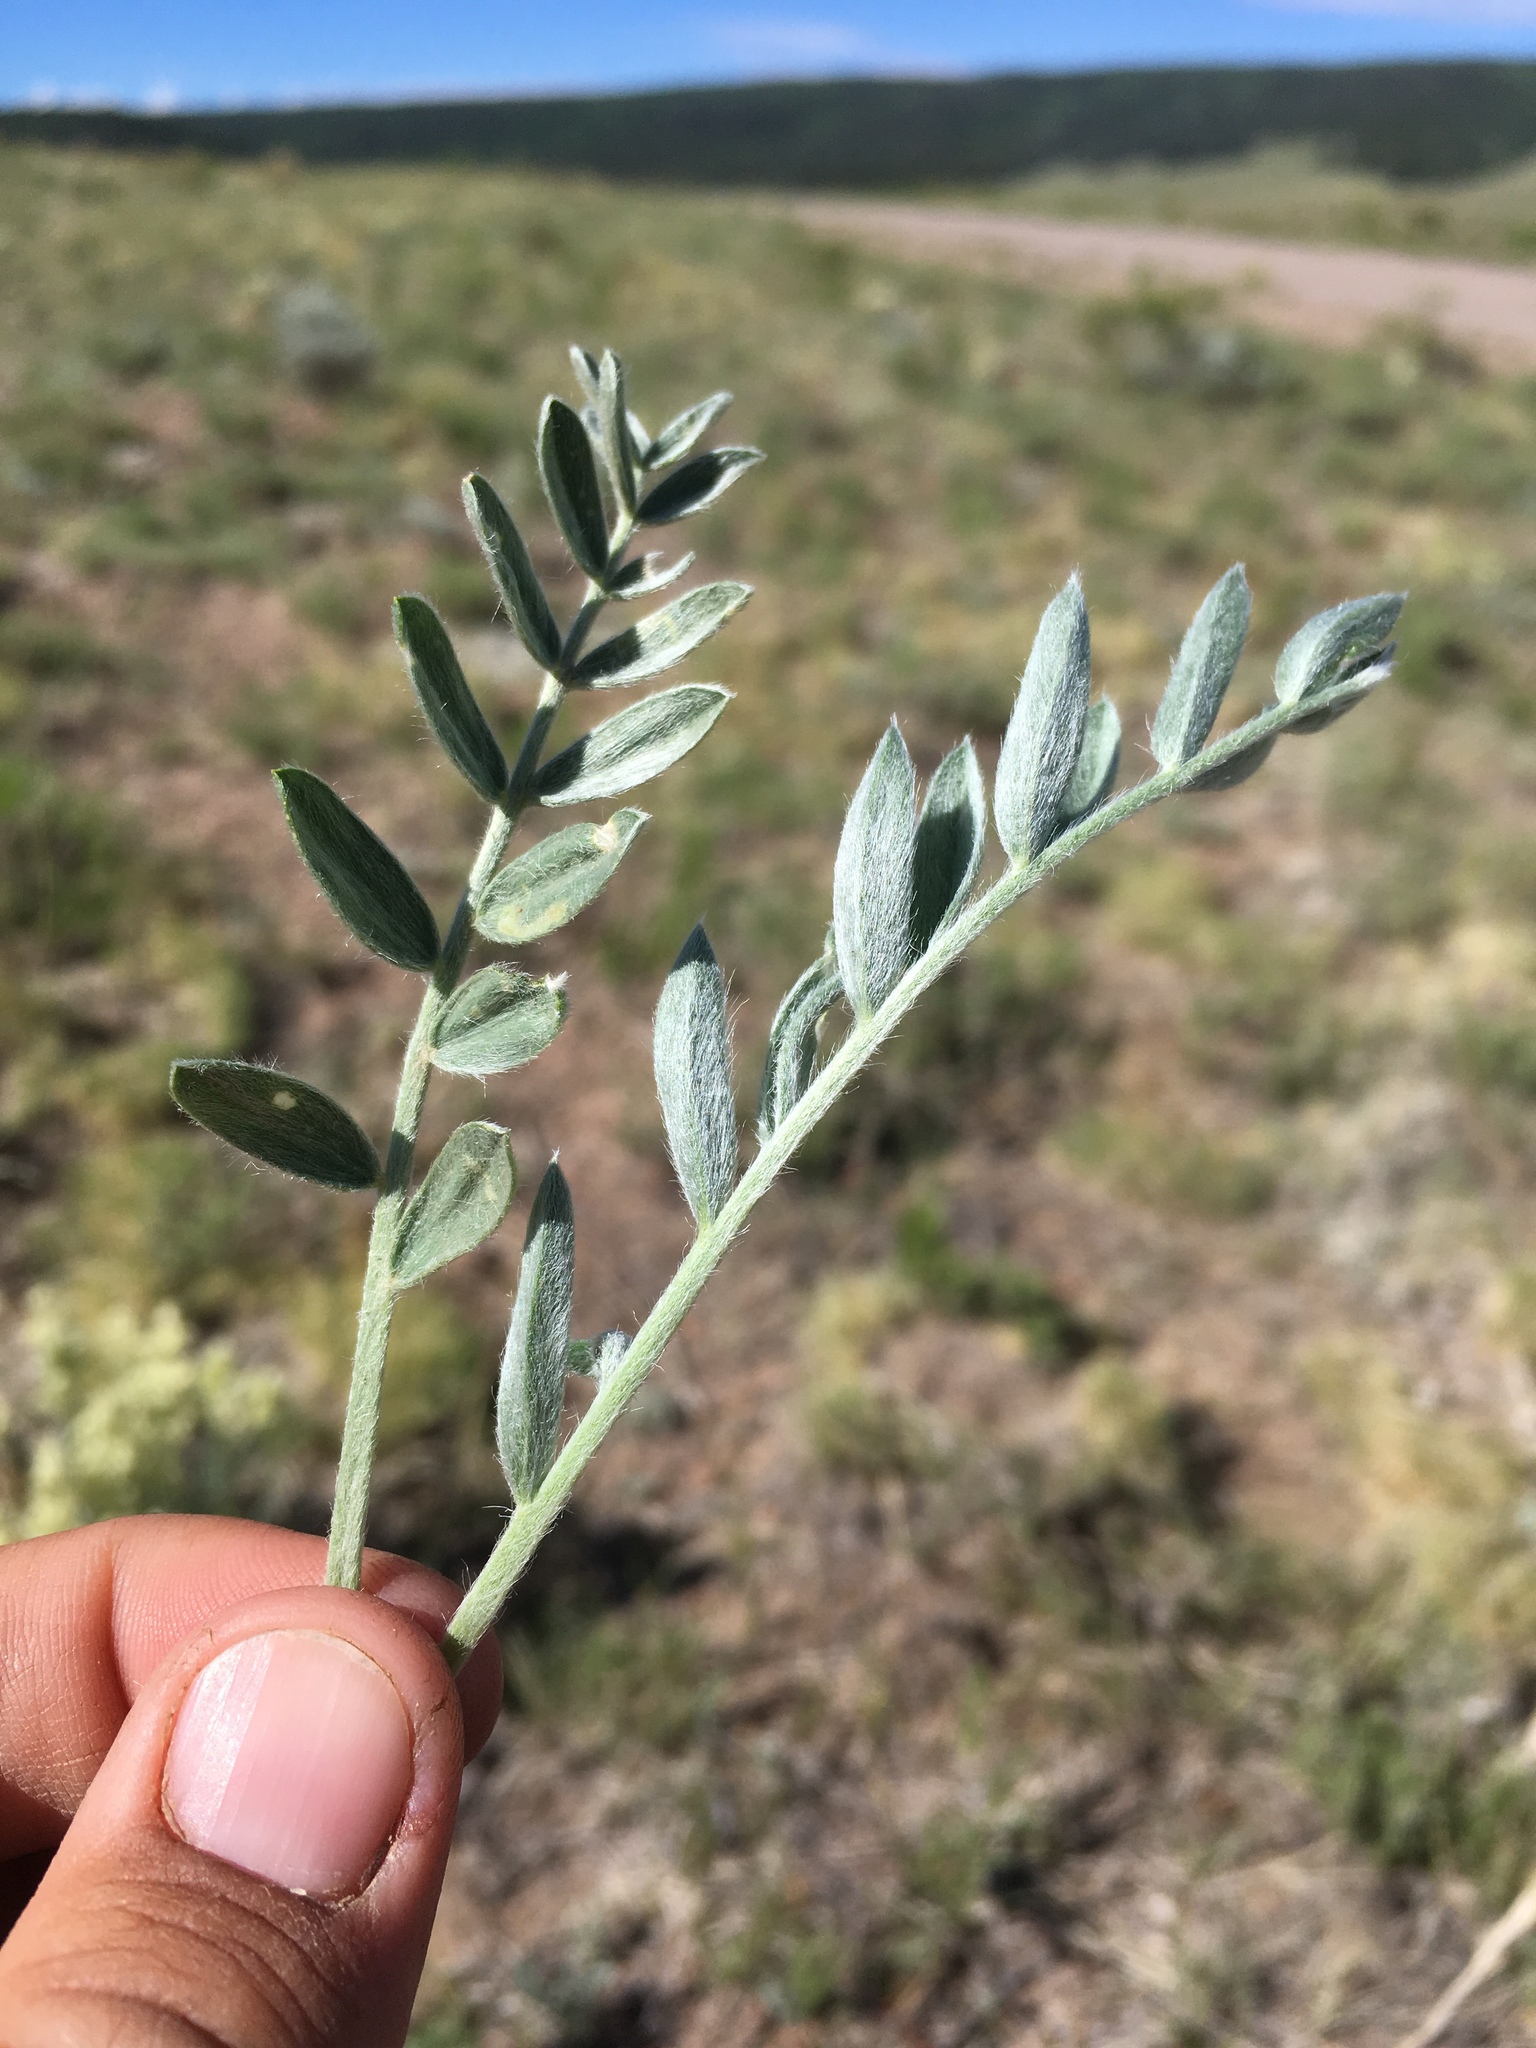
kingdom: Plantae
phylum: Tracheophyta
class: Magnoliopsida
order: Fabales
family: Fabaceae
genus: Oxytropis
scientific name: Oxytropis sericea
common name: Silky locoweed
